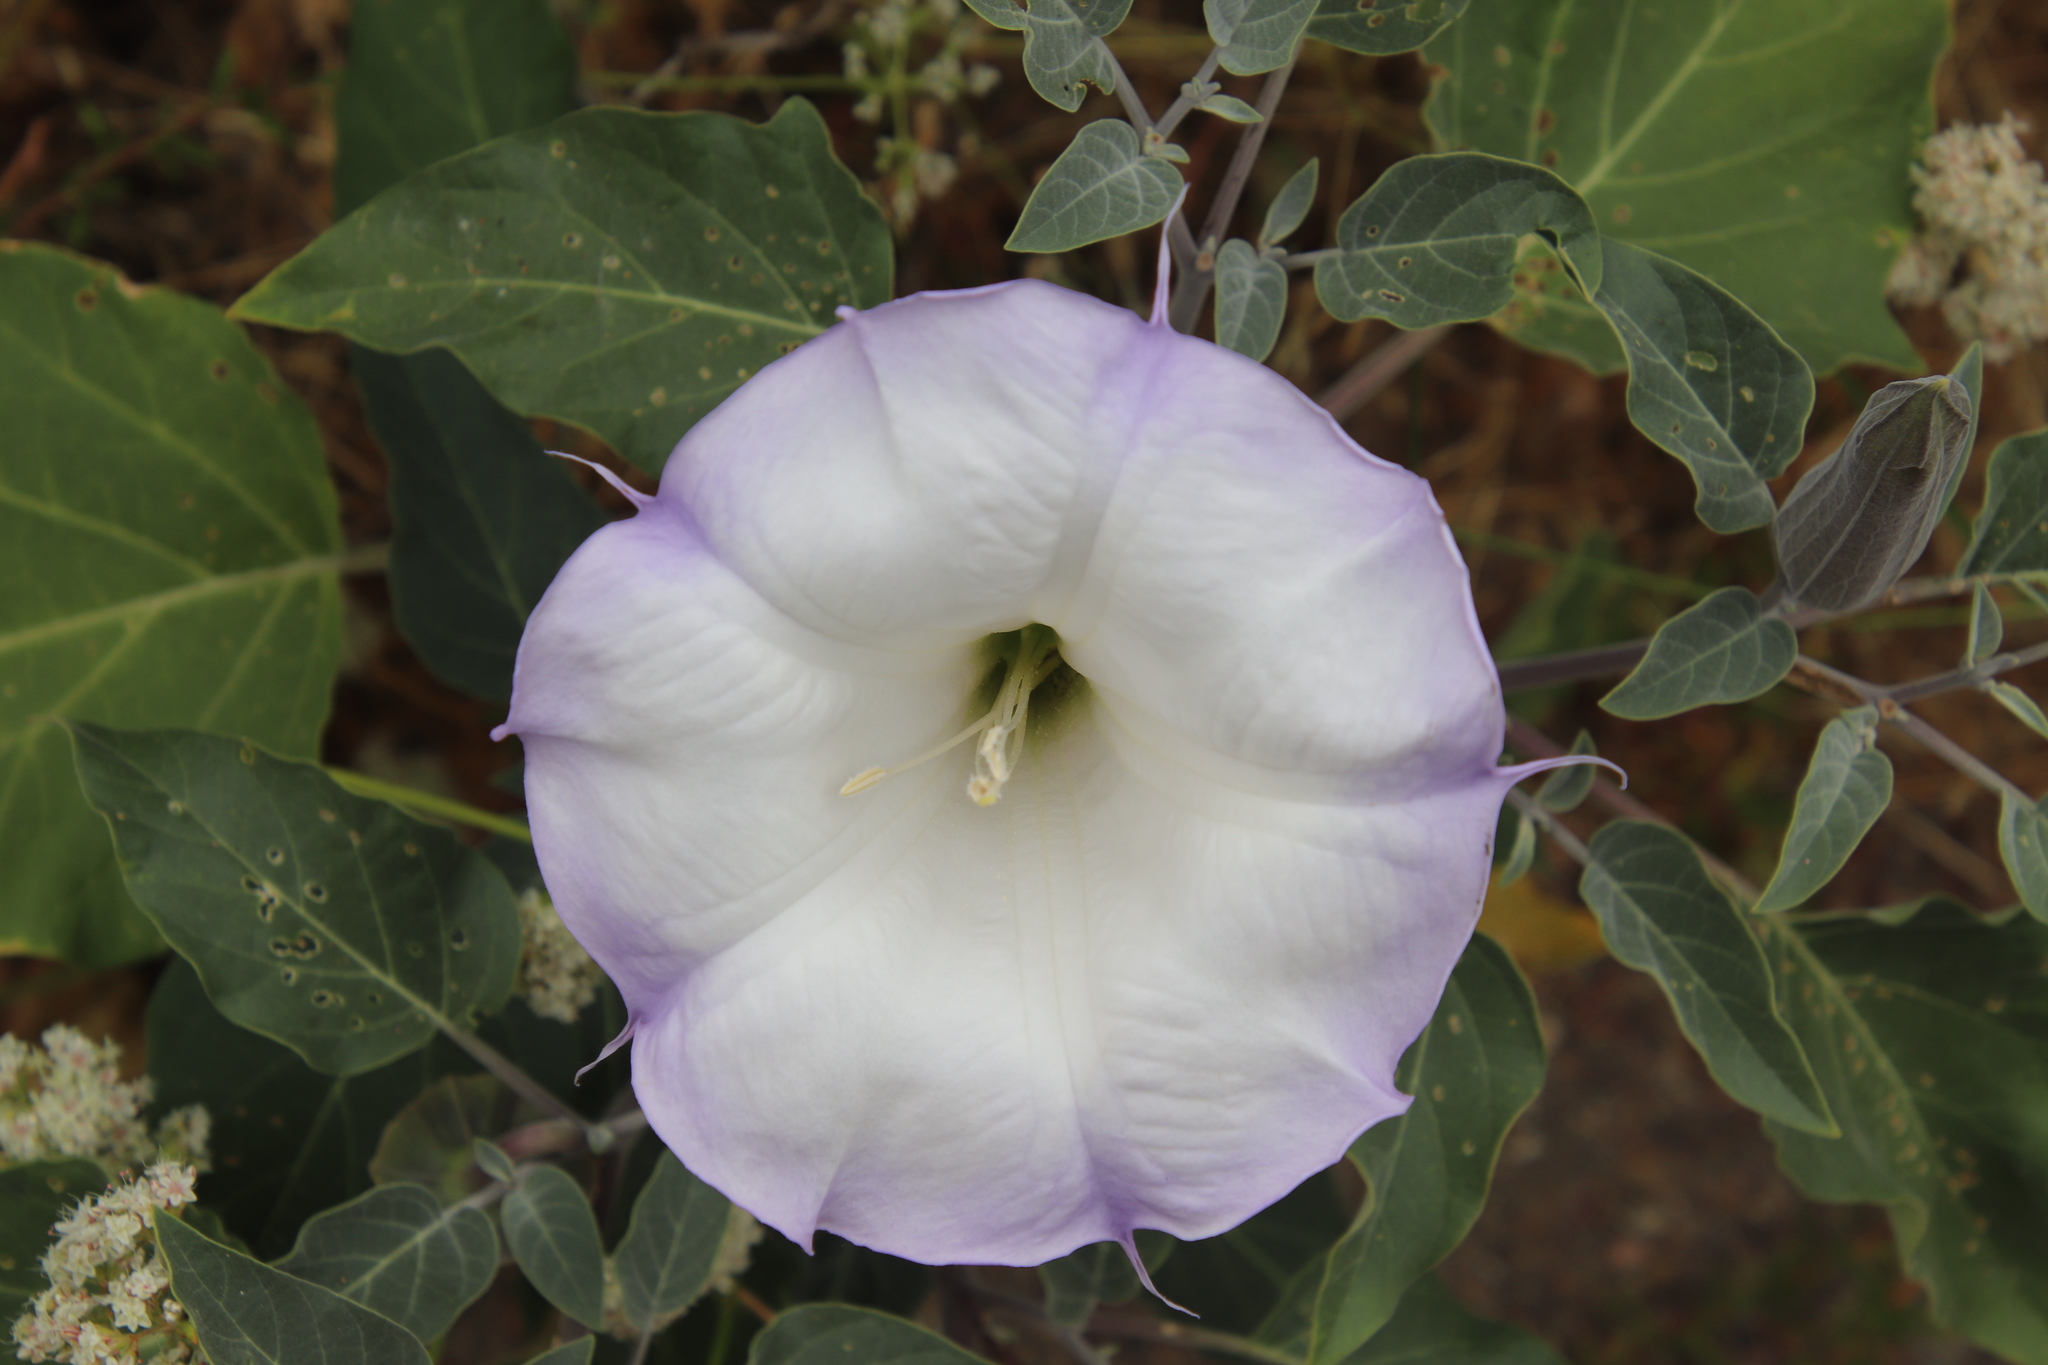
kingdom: Plantae
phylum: Tracheophyta
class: Magnoliopsida
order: Solanales
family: Solanaceae
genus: Datura
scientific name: Datura wrightii
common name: Sacred thorn-apple
